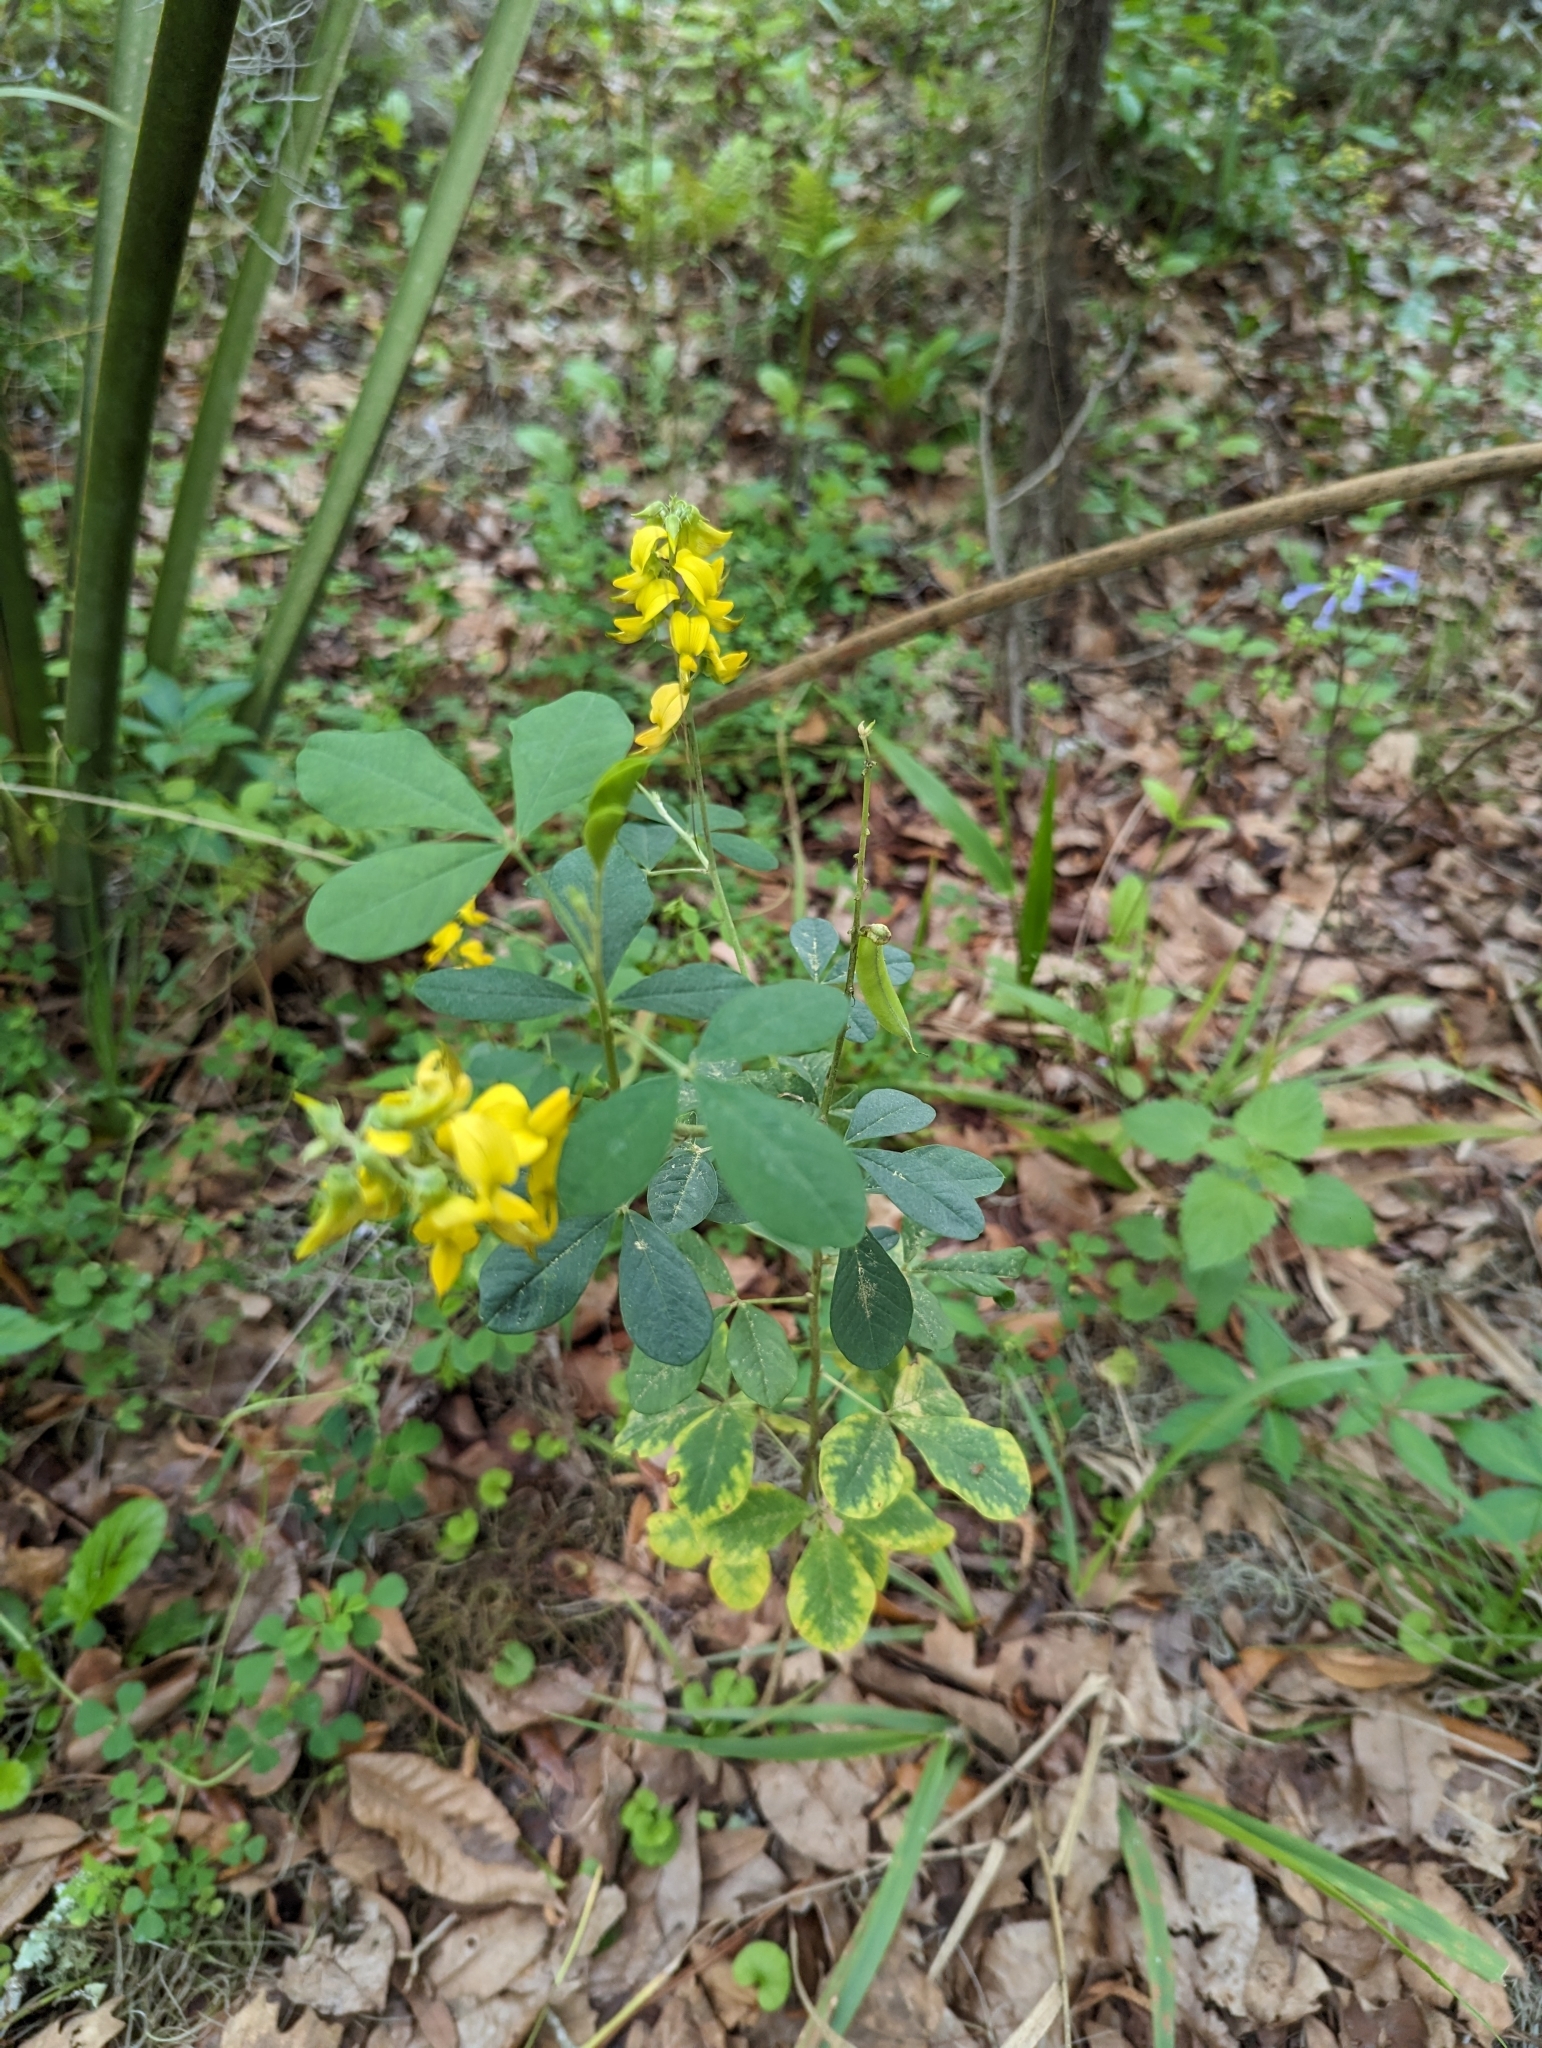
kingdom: Plantae
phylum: Tracheophyta
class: Magnoliopsida
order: Fabales
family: Fabaceae
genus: Crotalaria
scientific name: Crotalaria pallida
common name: Smooth rattlebox
